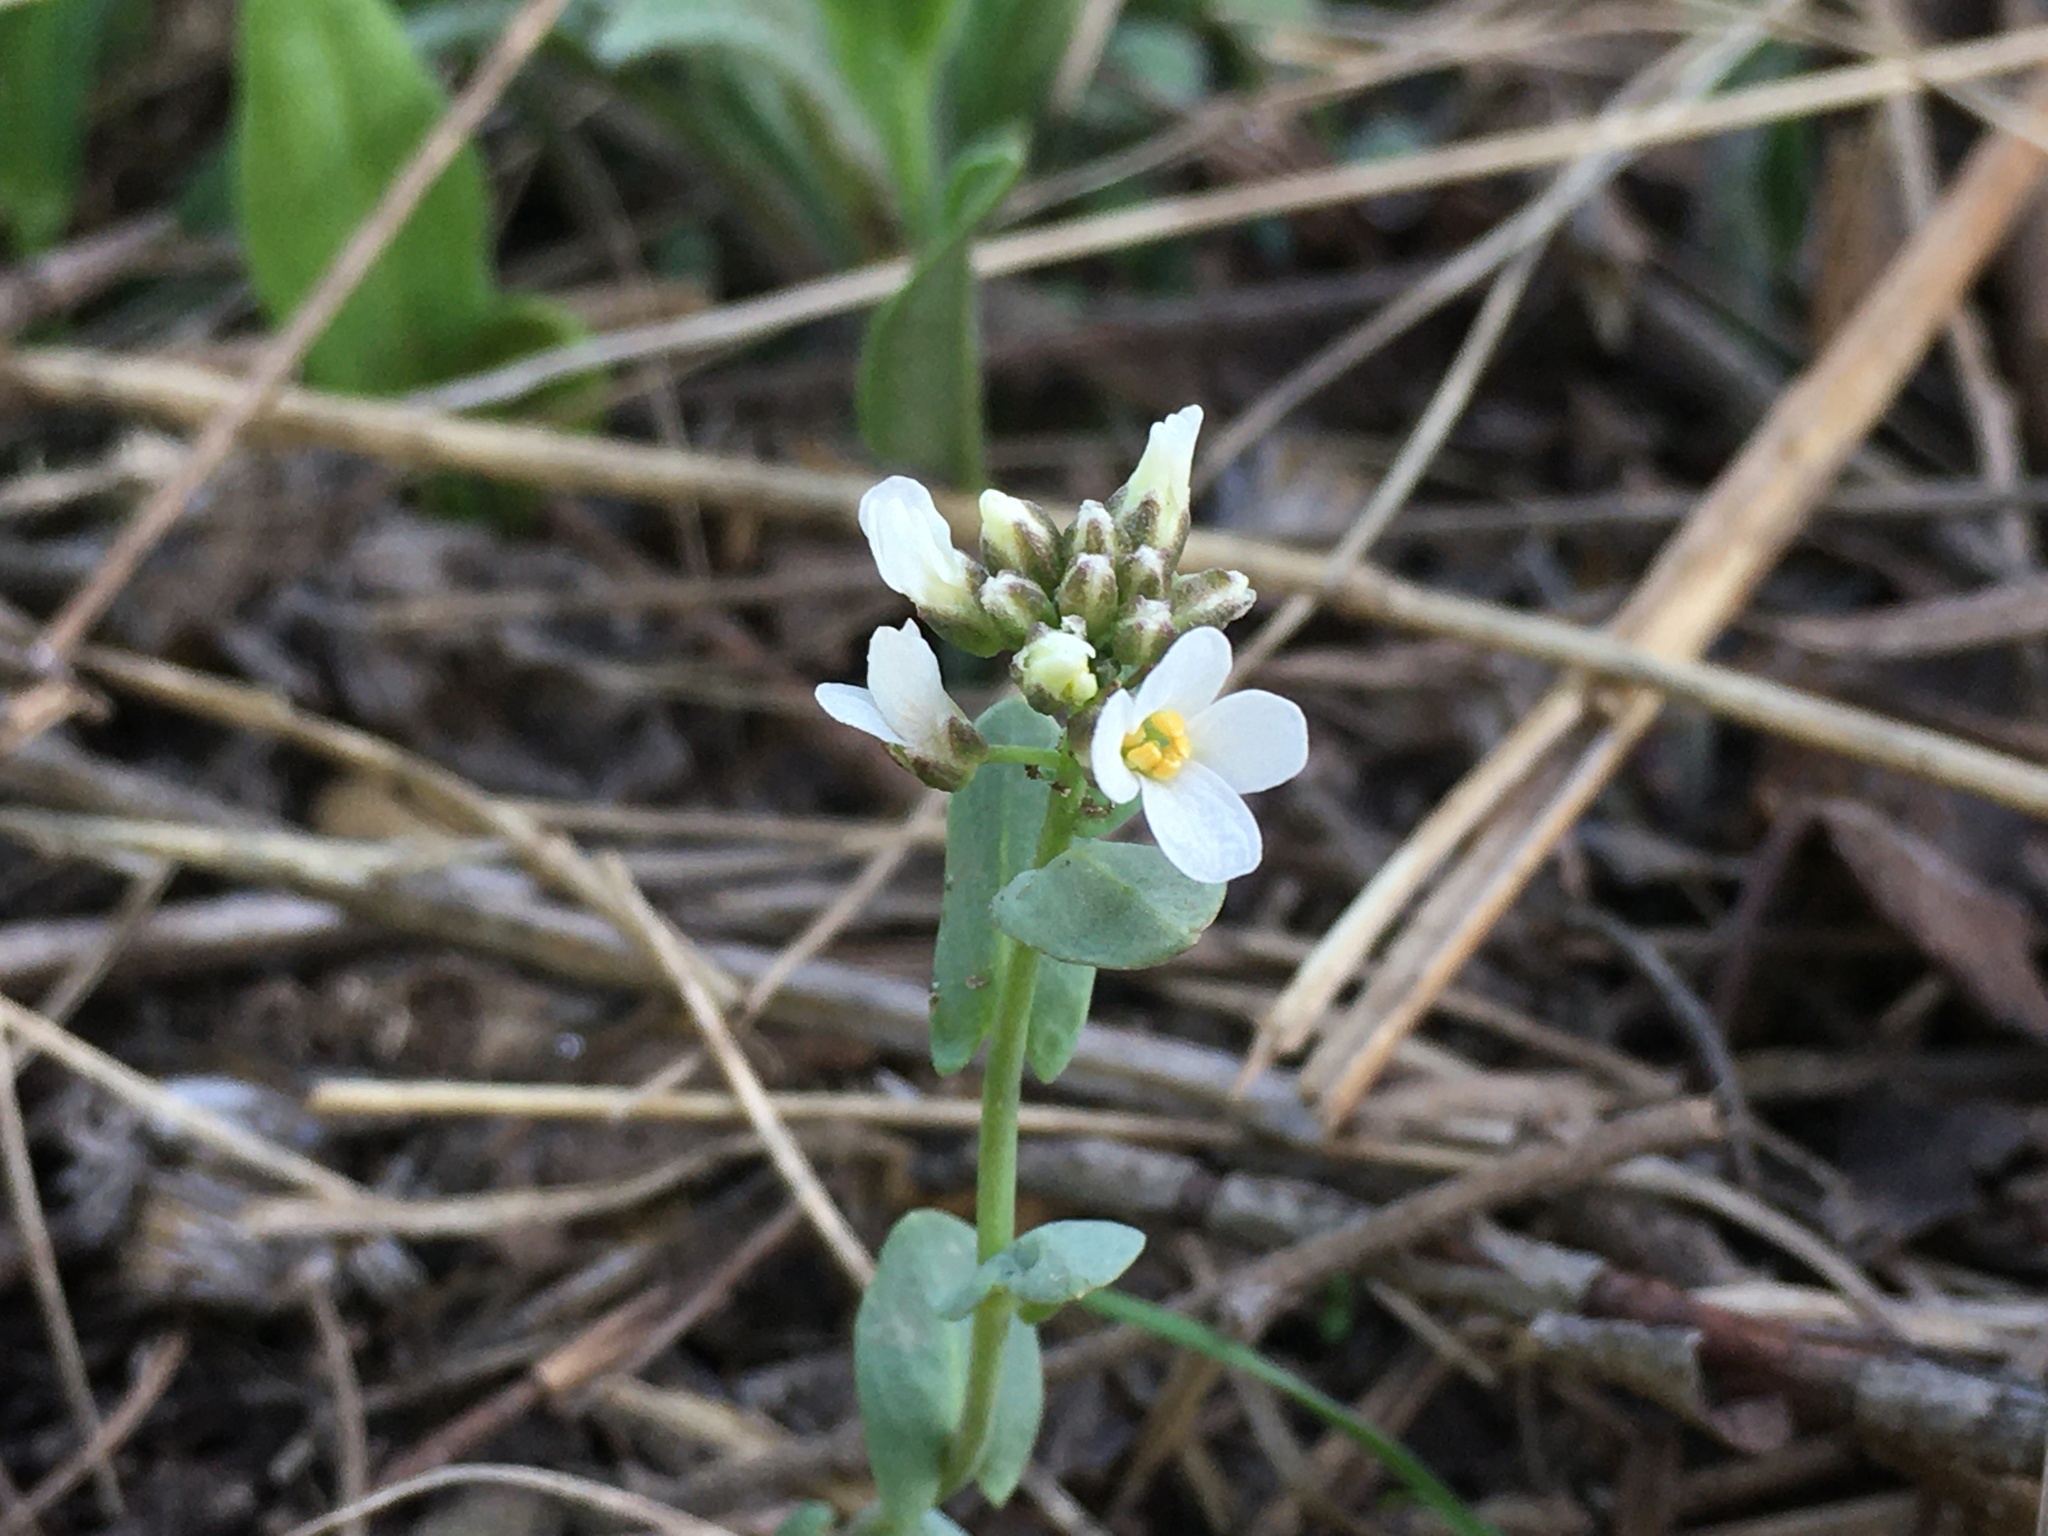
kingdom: Plantae
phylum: Tracheophyta
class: Magnoliopsida
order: Brassicales
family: Brassicaceae
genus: Noccaea
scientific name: Noccaea fendleri
